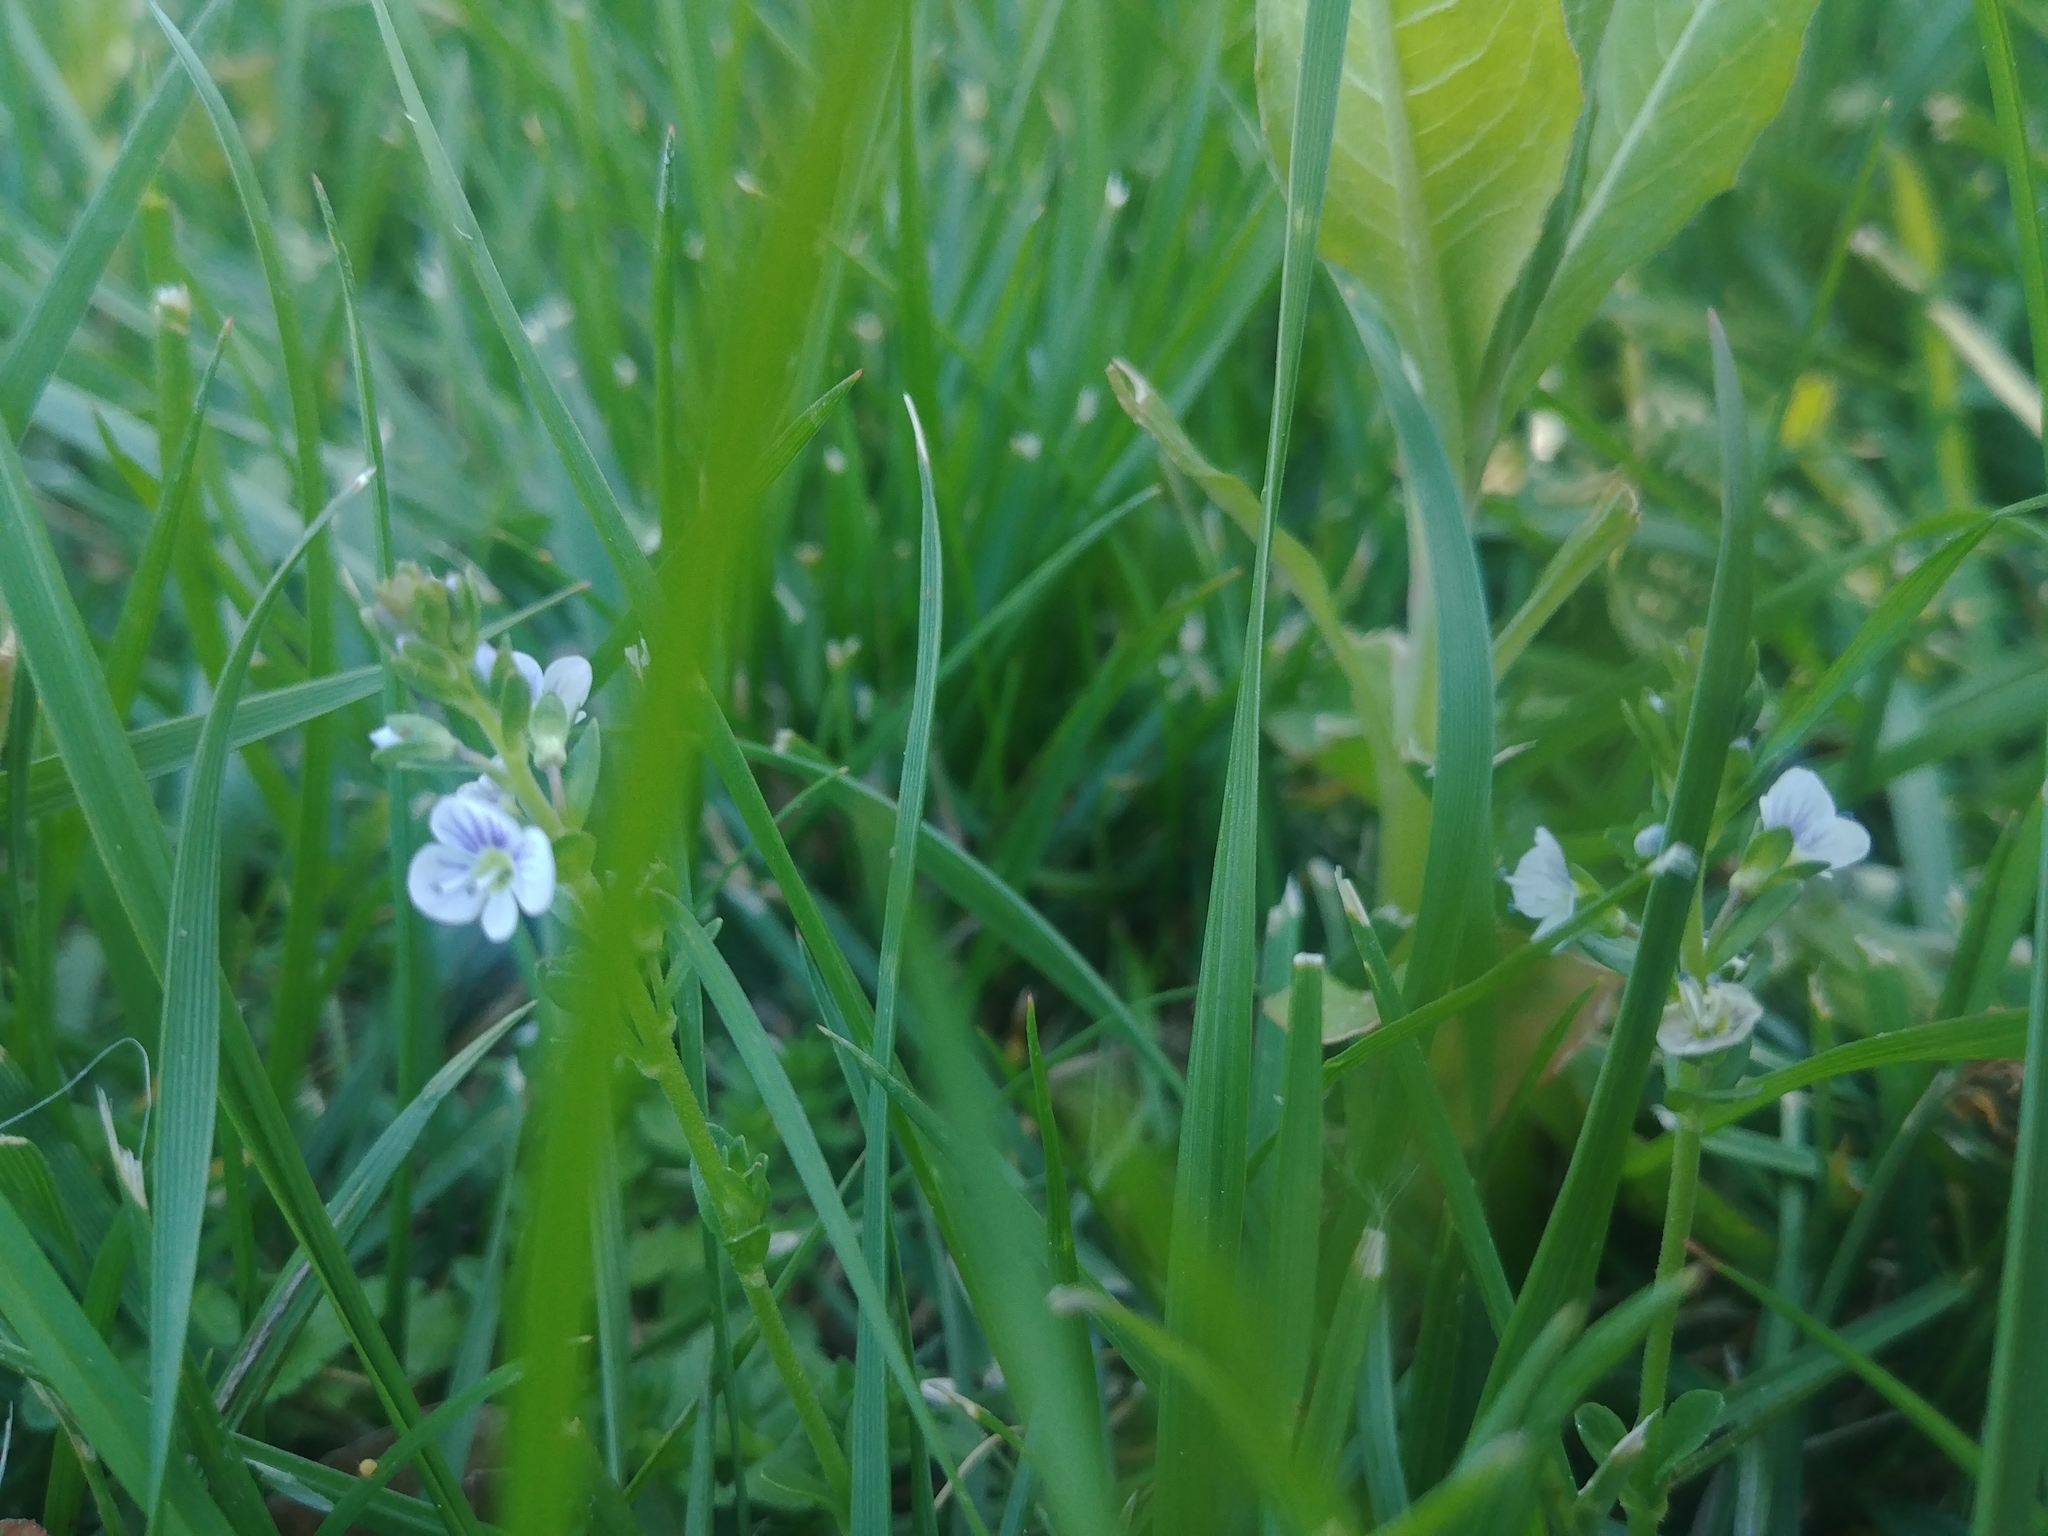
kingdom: Plantae
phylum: Tracheophyta
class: Magnoliopsida
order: Lamiales
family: Plantaginaceae
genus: Veronica
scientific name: Veronica serpyllifolia
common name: Thyme-leaved speedwell
